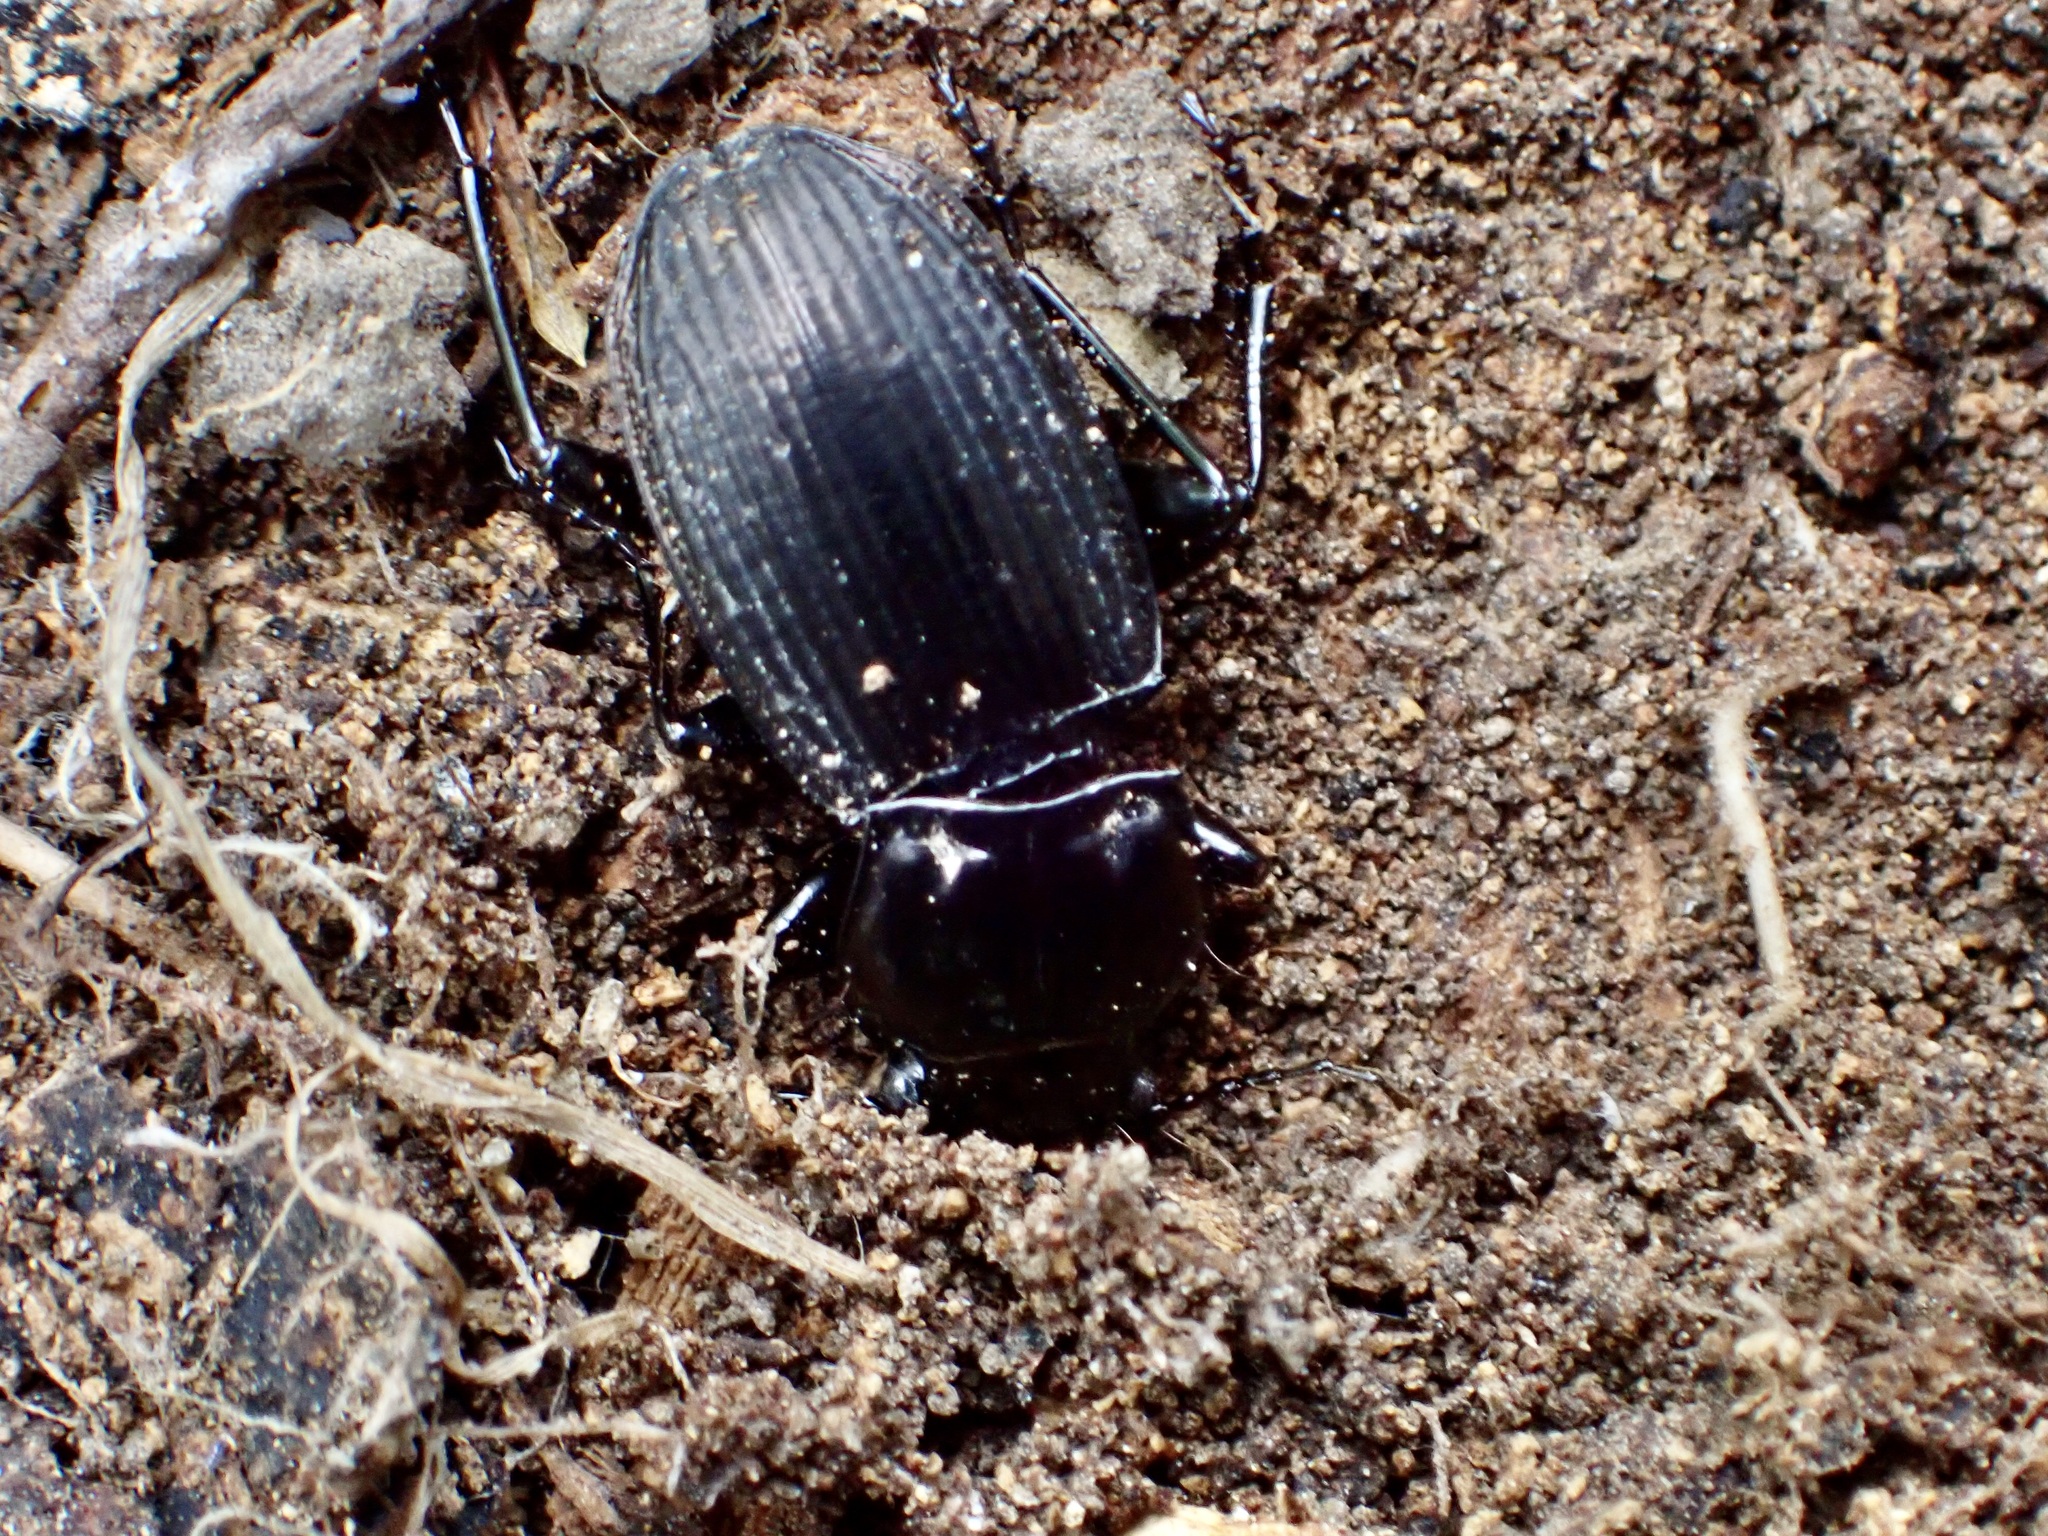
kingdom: Animalia
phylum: Arthropoda
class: Insecta
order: Coleoptera
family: Carabidae
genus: Megadromus
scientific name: Megadromus guerinii
